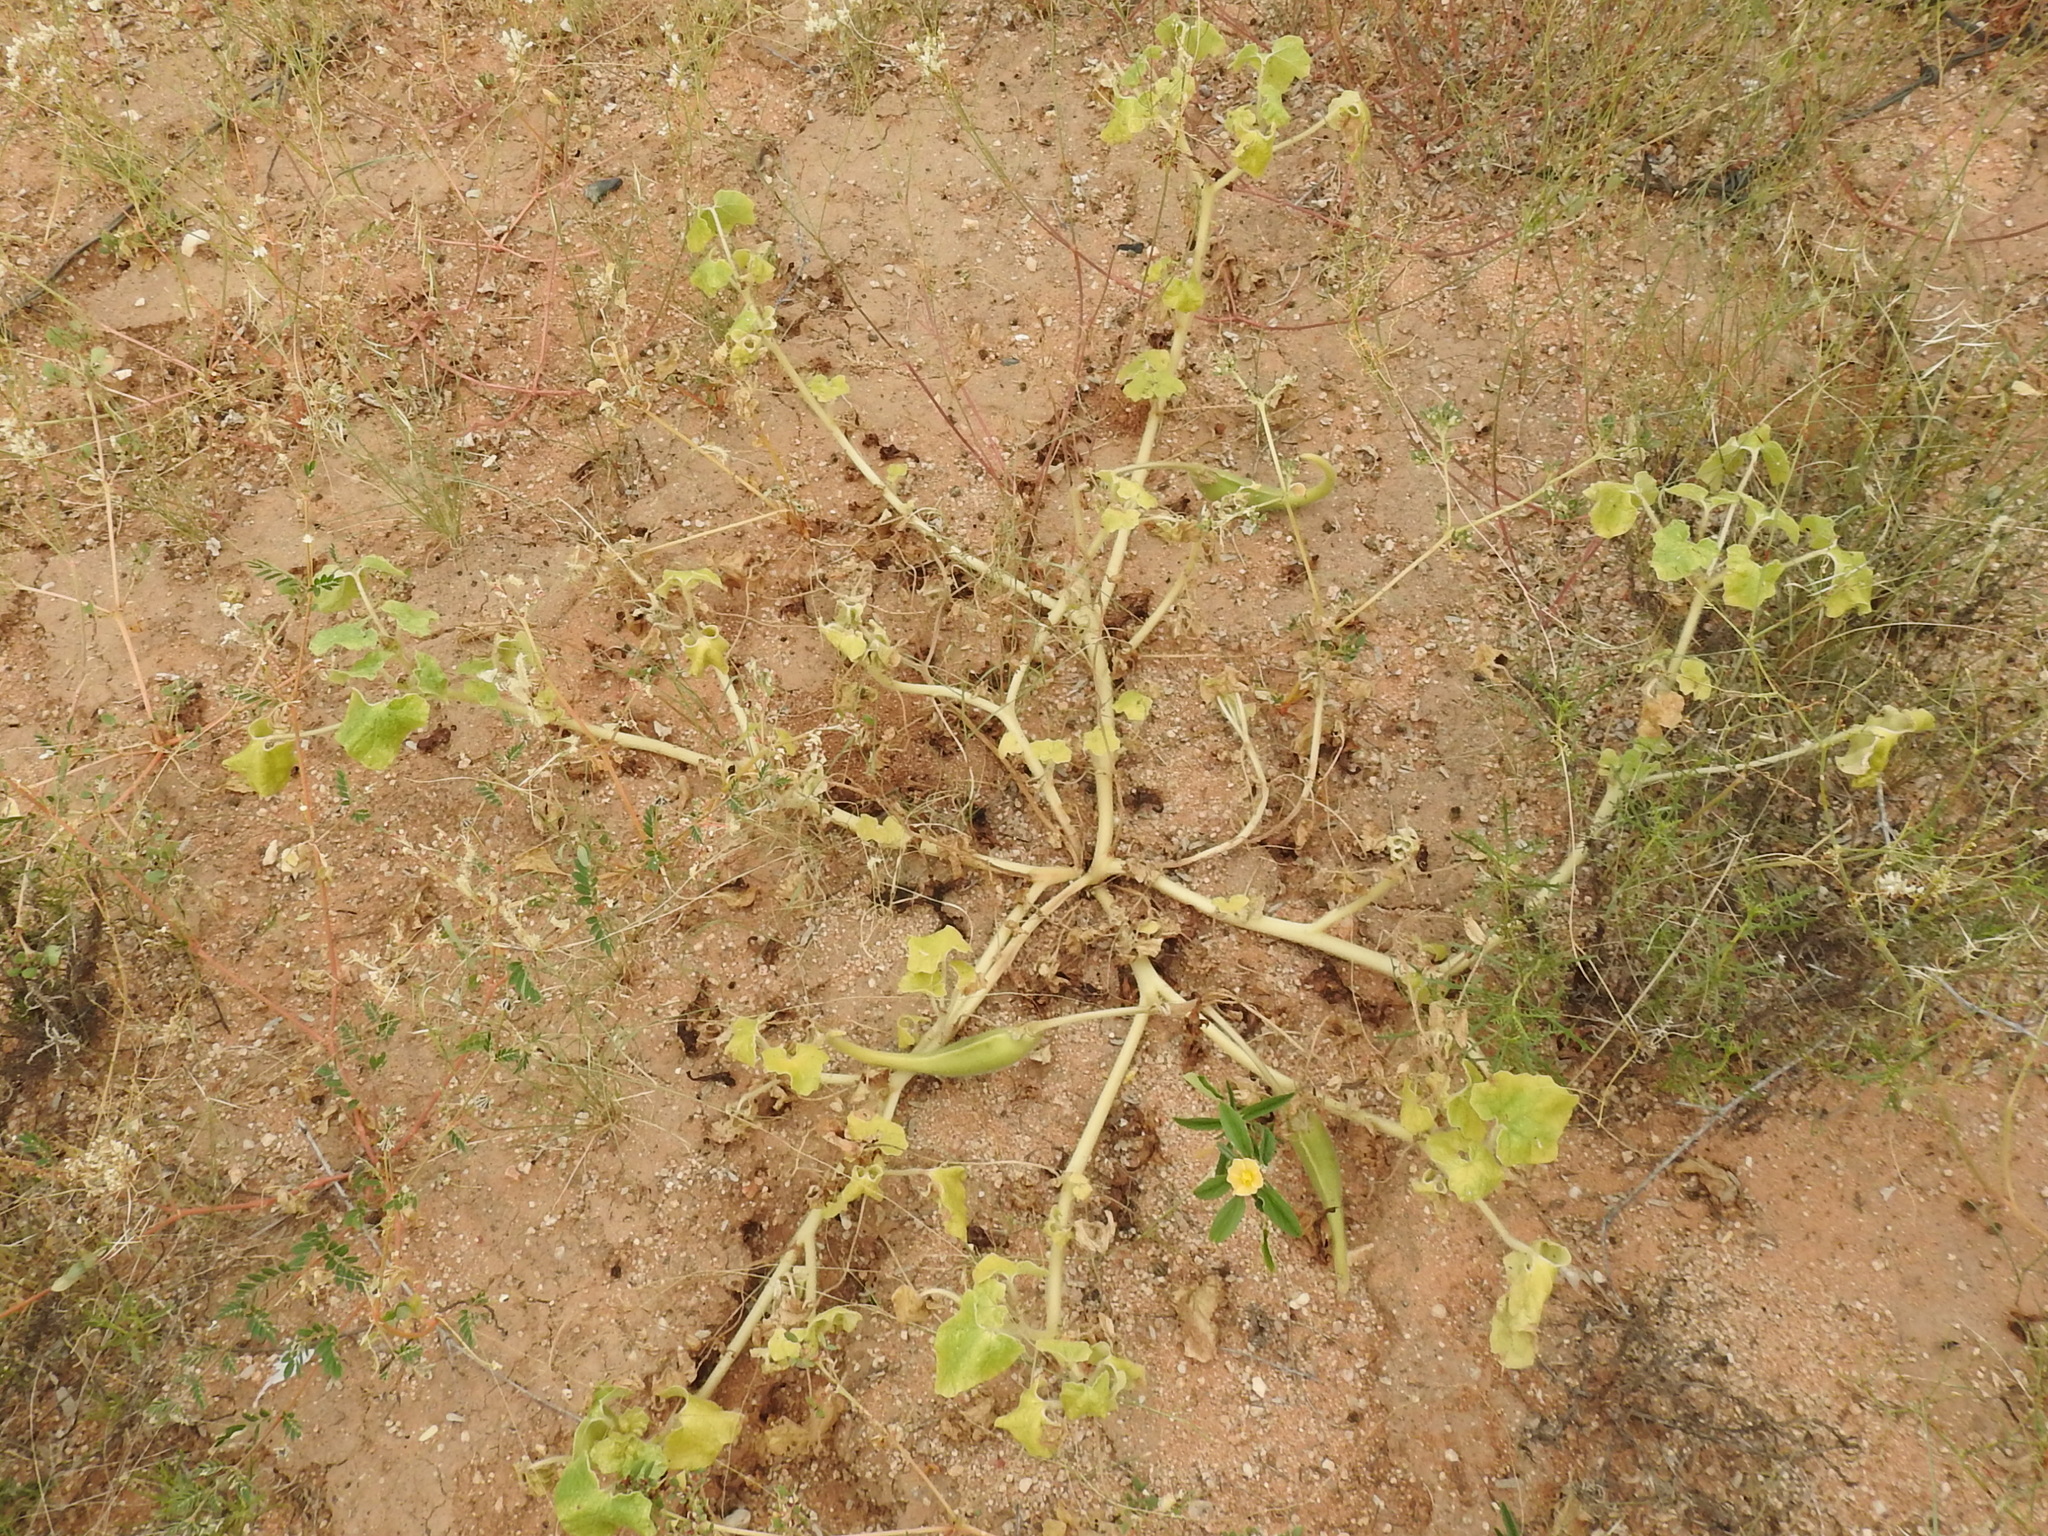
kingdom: Plantae
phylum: Tracheophyta
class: Magnoliopsida
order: Lamiales
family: Martyniaceae
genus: Proboscidea
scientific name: Proboscidea parviflora
